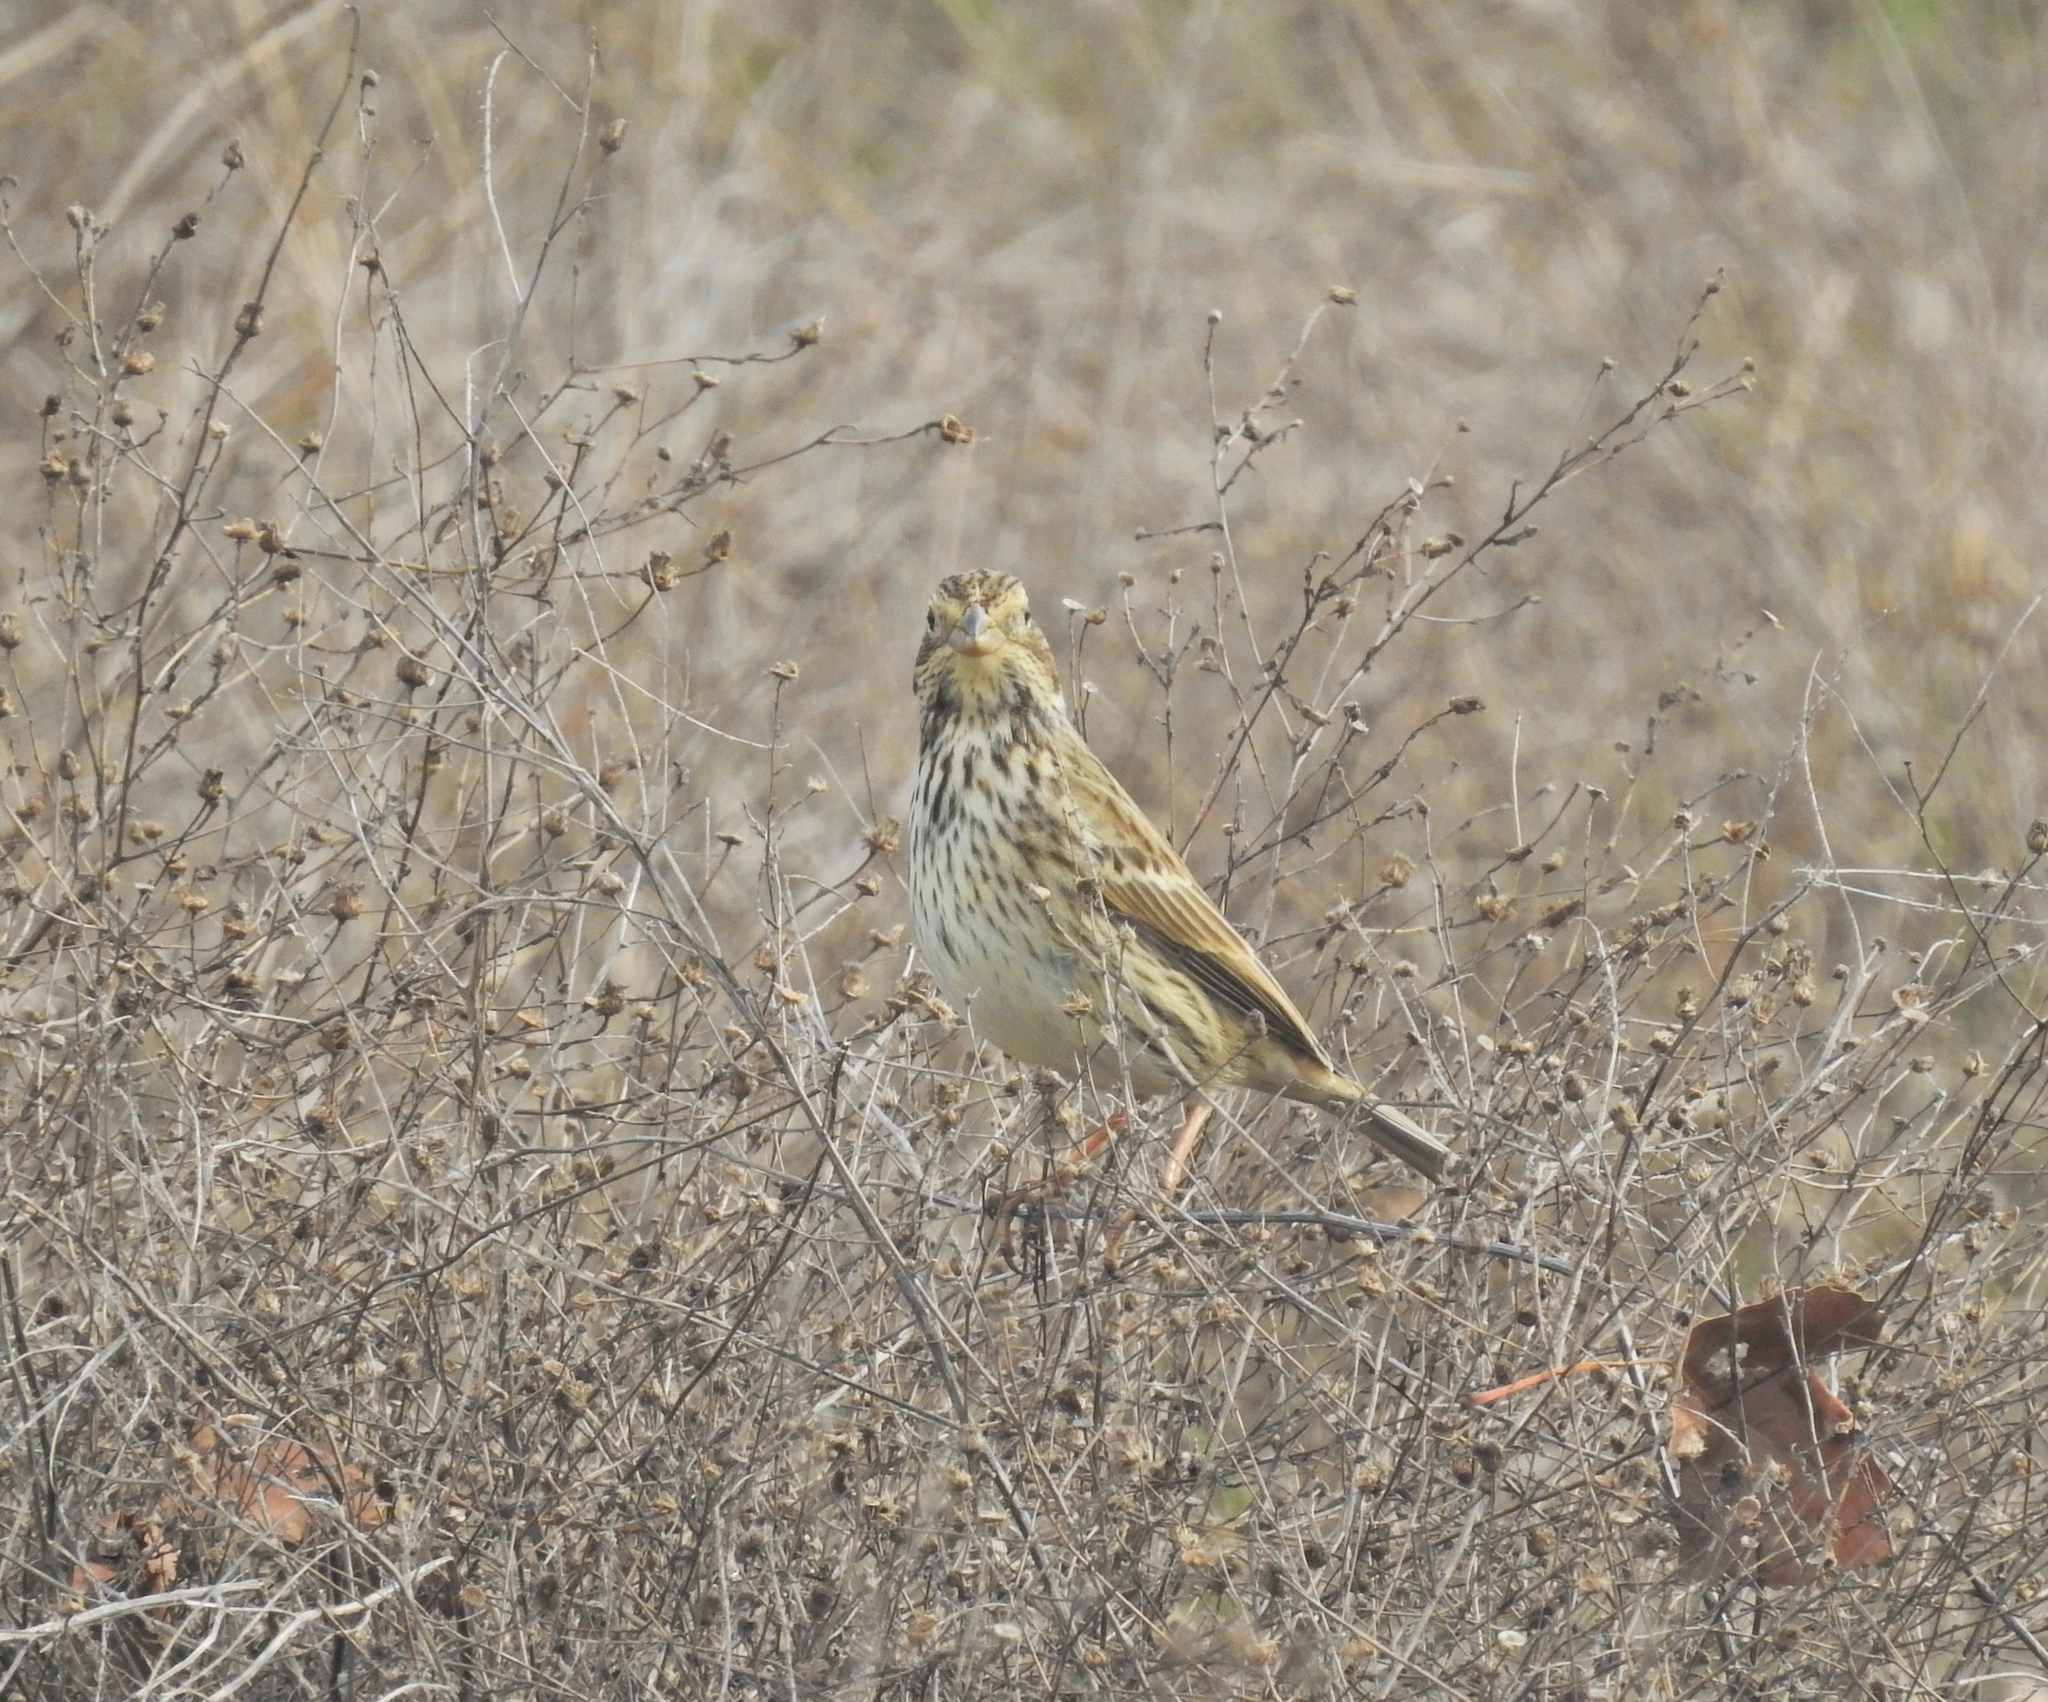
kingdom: Animalia
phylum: Chordata
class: Aves
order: Passeriformes
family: Emberizidae
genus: Emberiza
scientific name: Emberiza calandra
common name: Corn bunting
